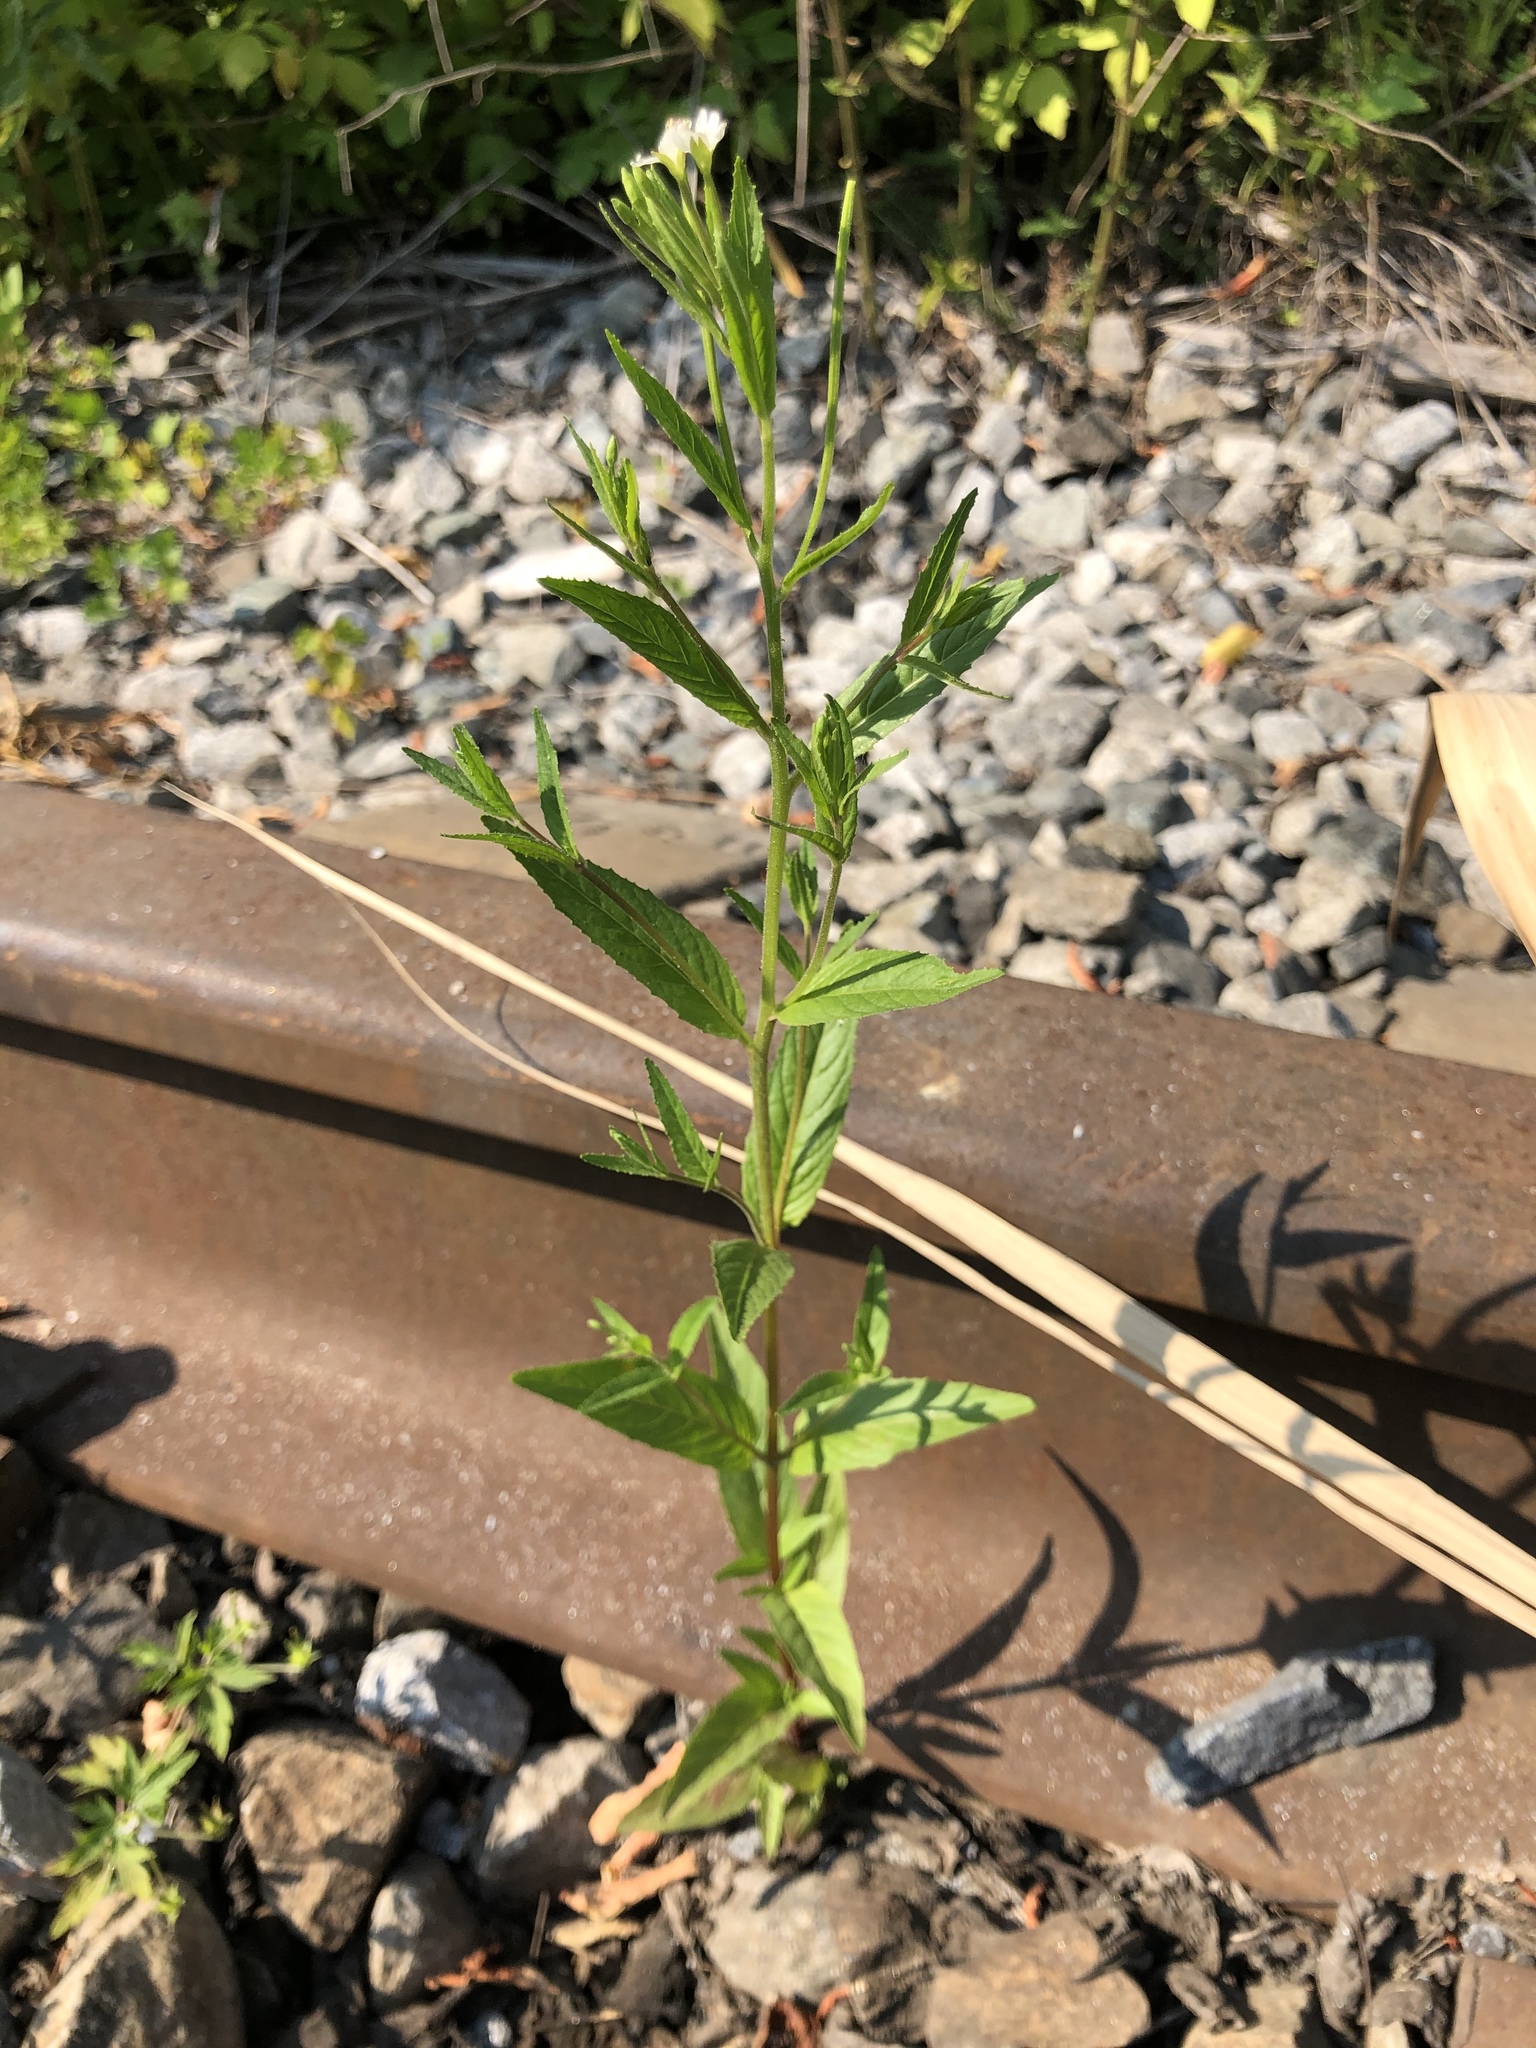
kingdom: Plantae
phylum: Tracheophyta
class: Magnoliopsida
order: Myrtales
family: Onagraceae
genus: Epilobium
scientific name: Epilobium pseudorubescens
